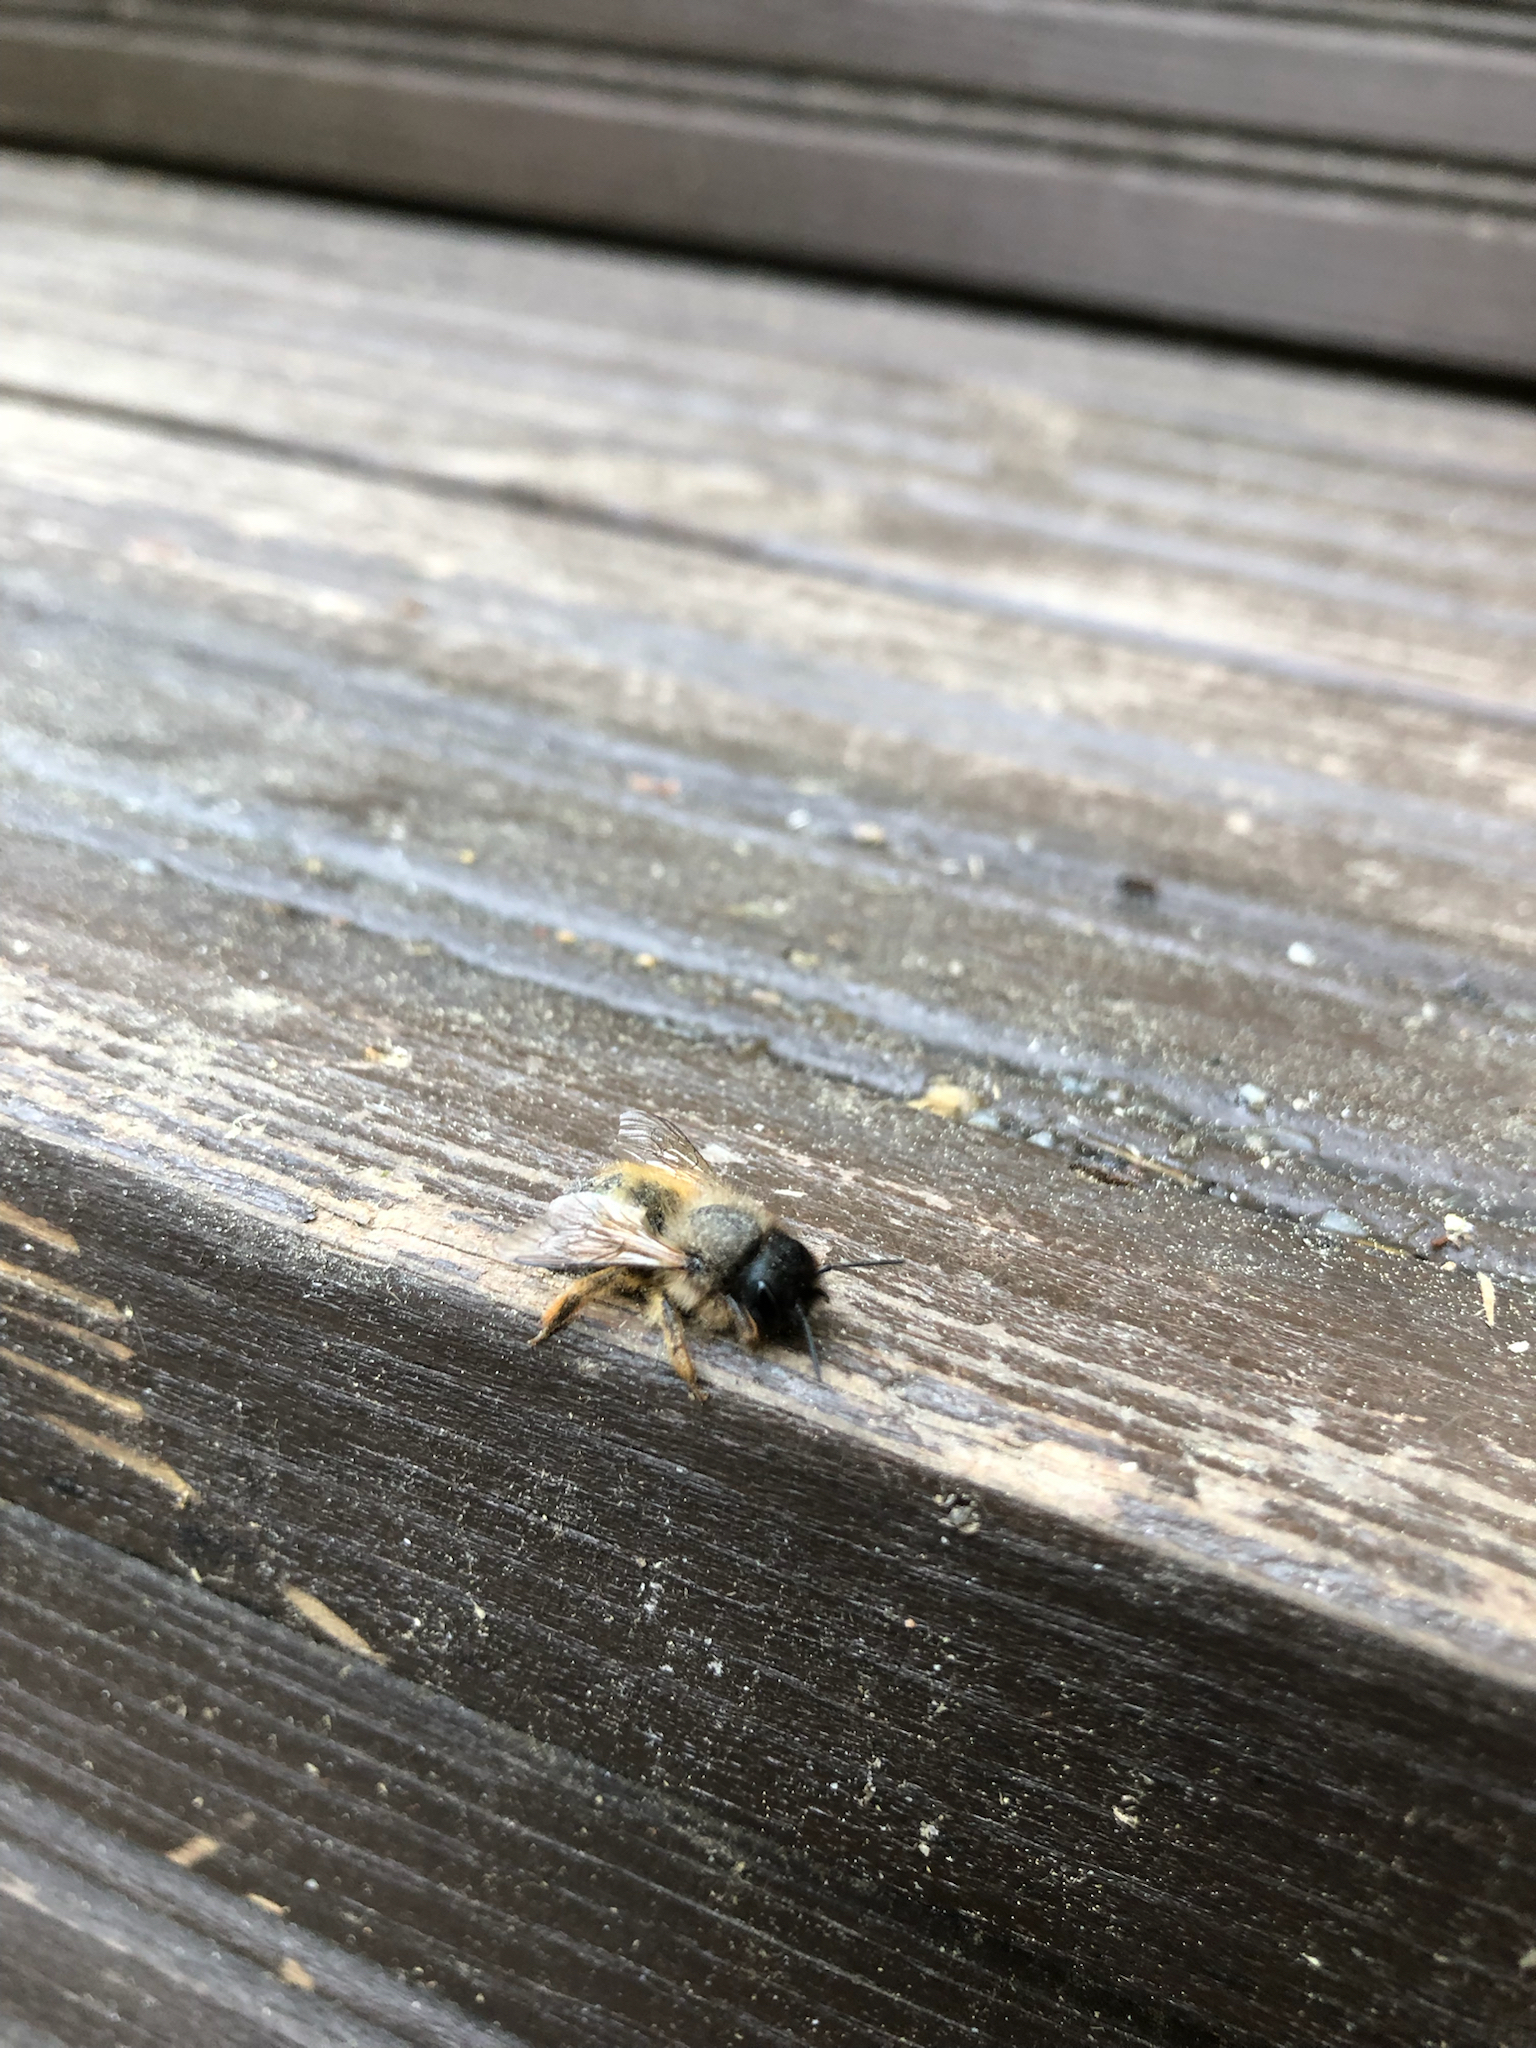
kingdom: Animalia
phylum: Arthropoda
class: Insecta
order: Hymenoptera
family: Megachilidae
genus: Osmia
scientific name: Osmia bicornis
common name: Red mason bee
